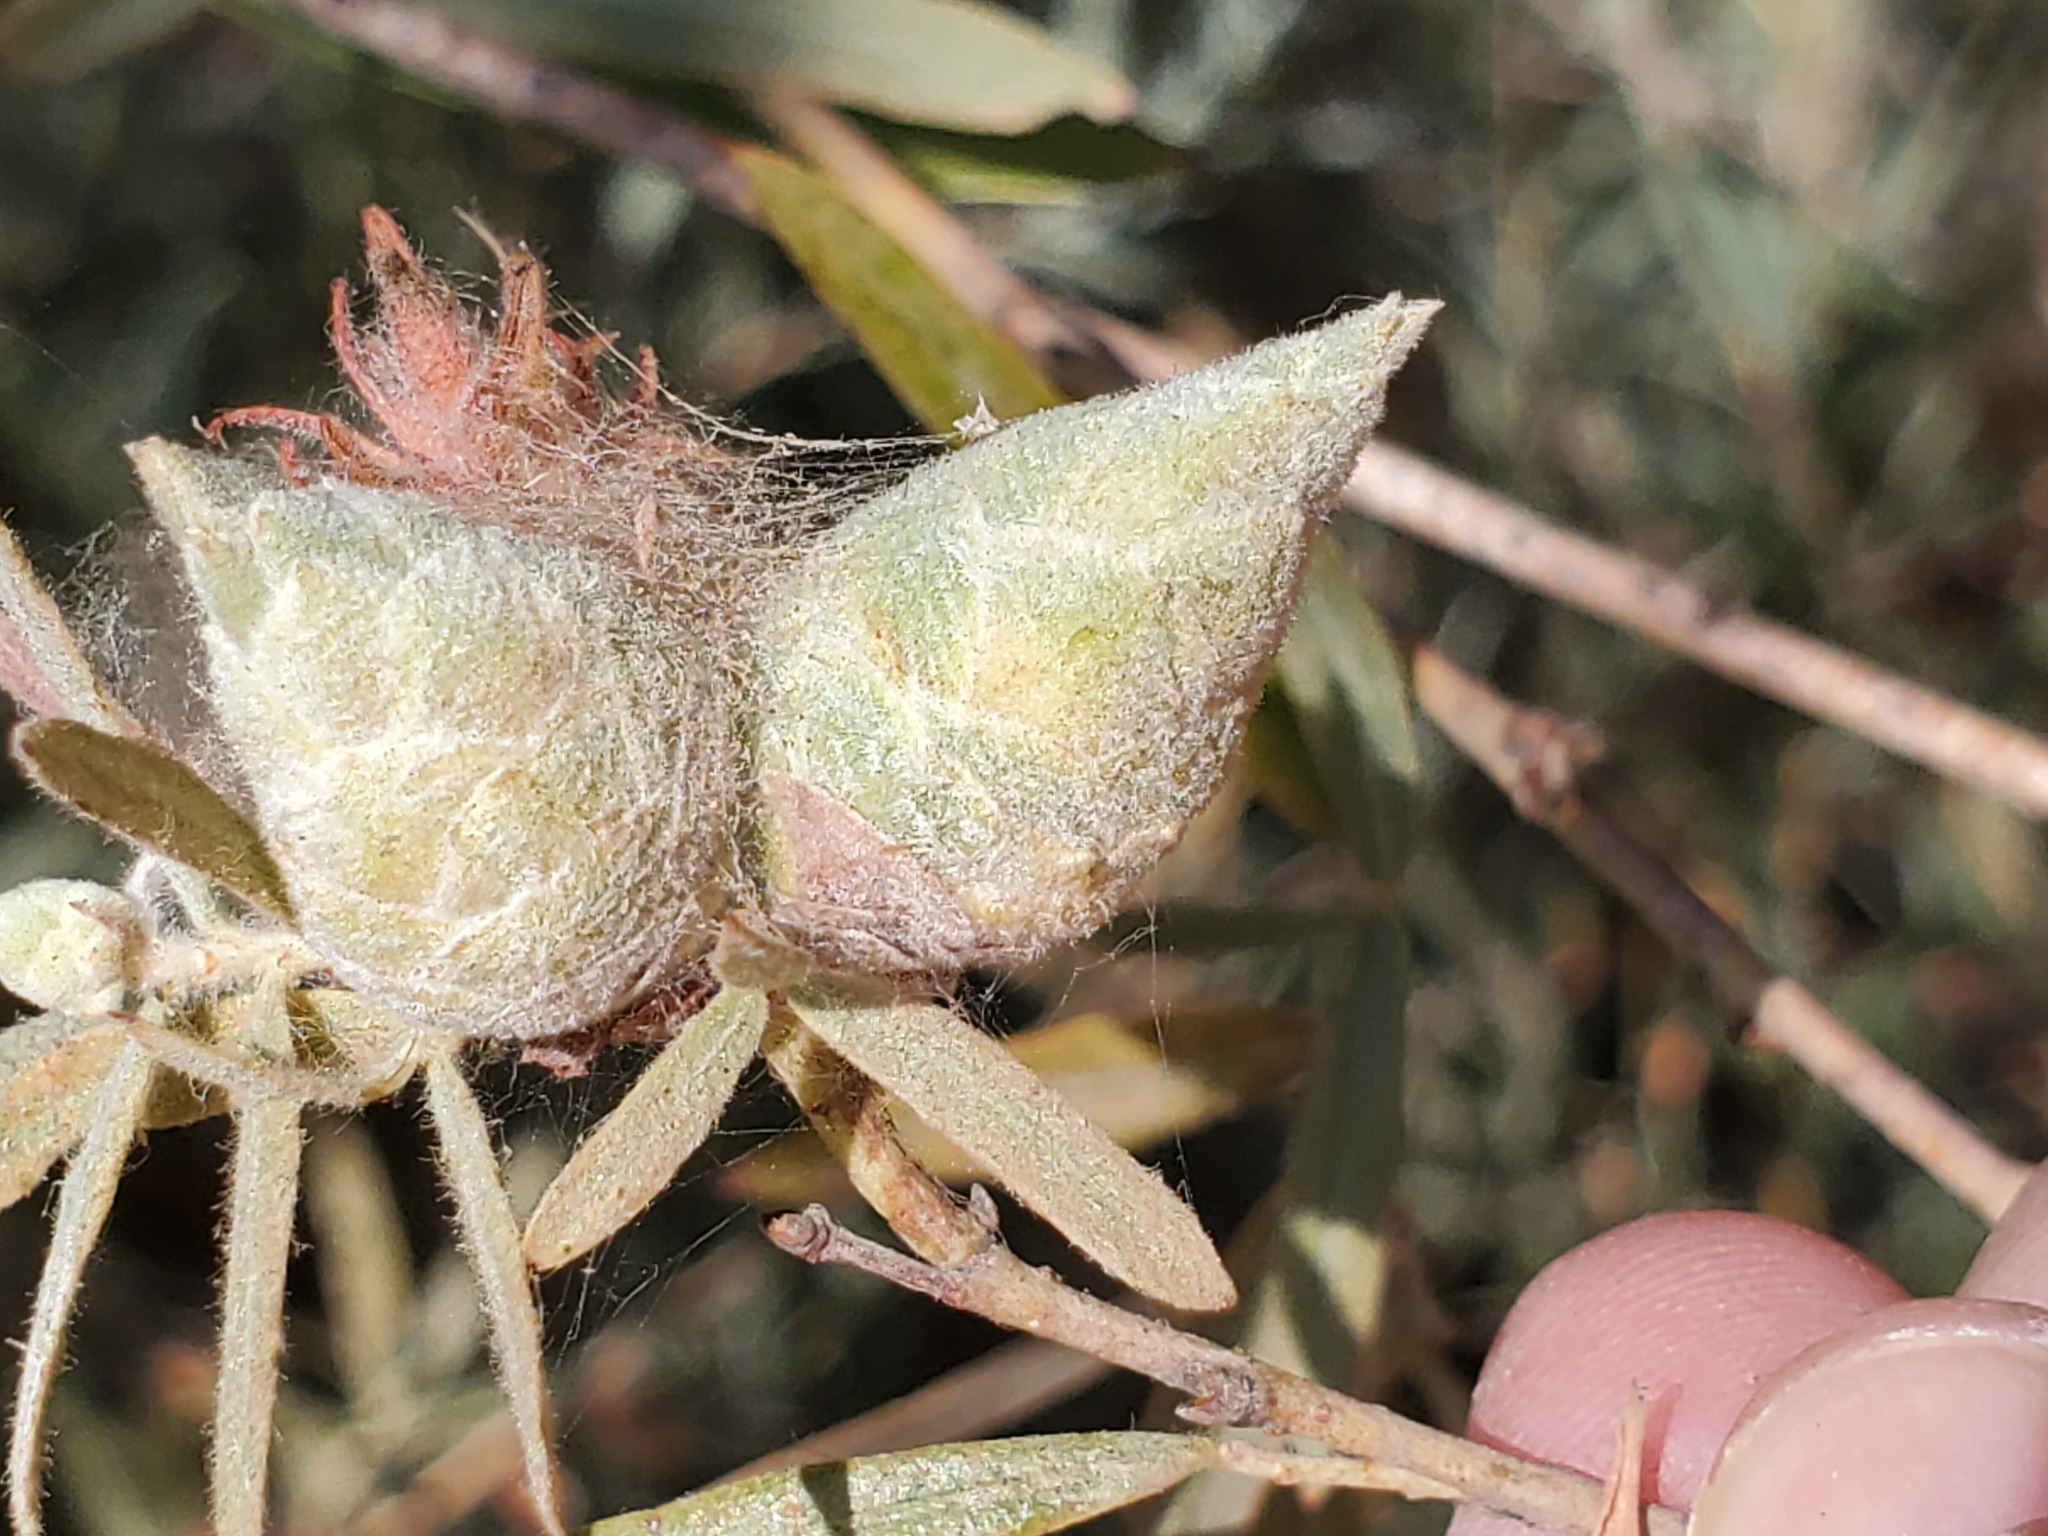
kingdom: Animalia
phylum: Arthropoda
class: Insecta
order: Diptera
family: Cecidomyiidae
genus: Rabdophaga
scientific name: Rabdophaga strobiloides
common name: Willow pinecone gall midge
